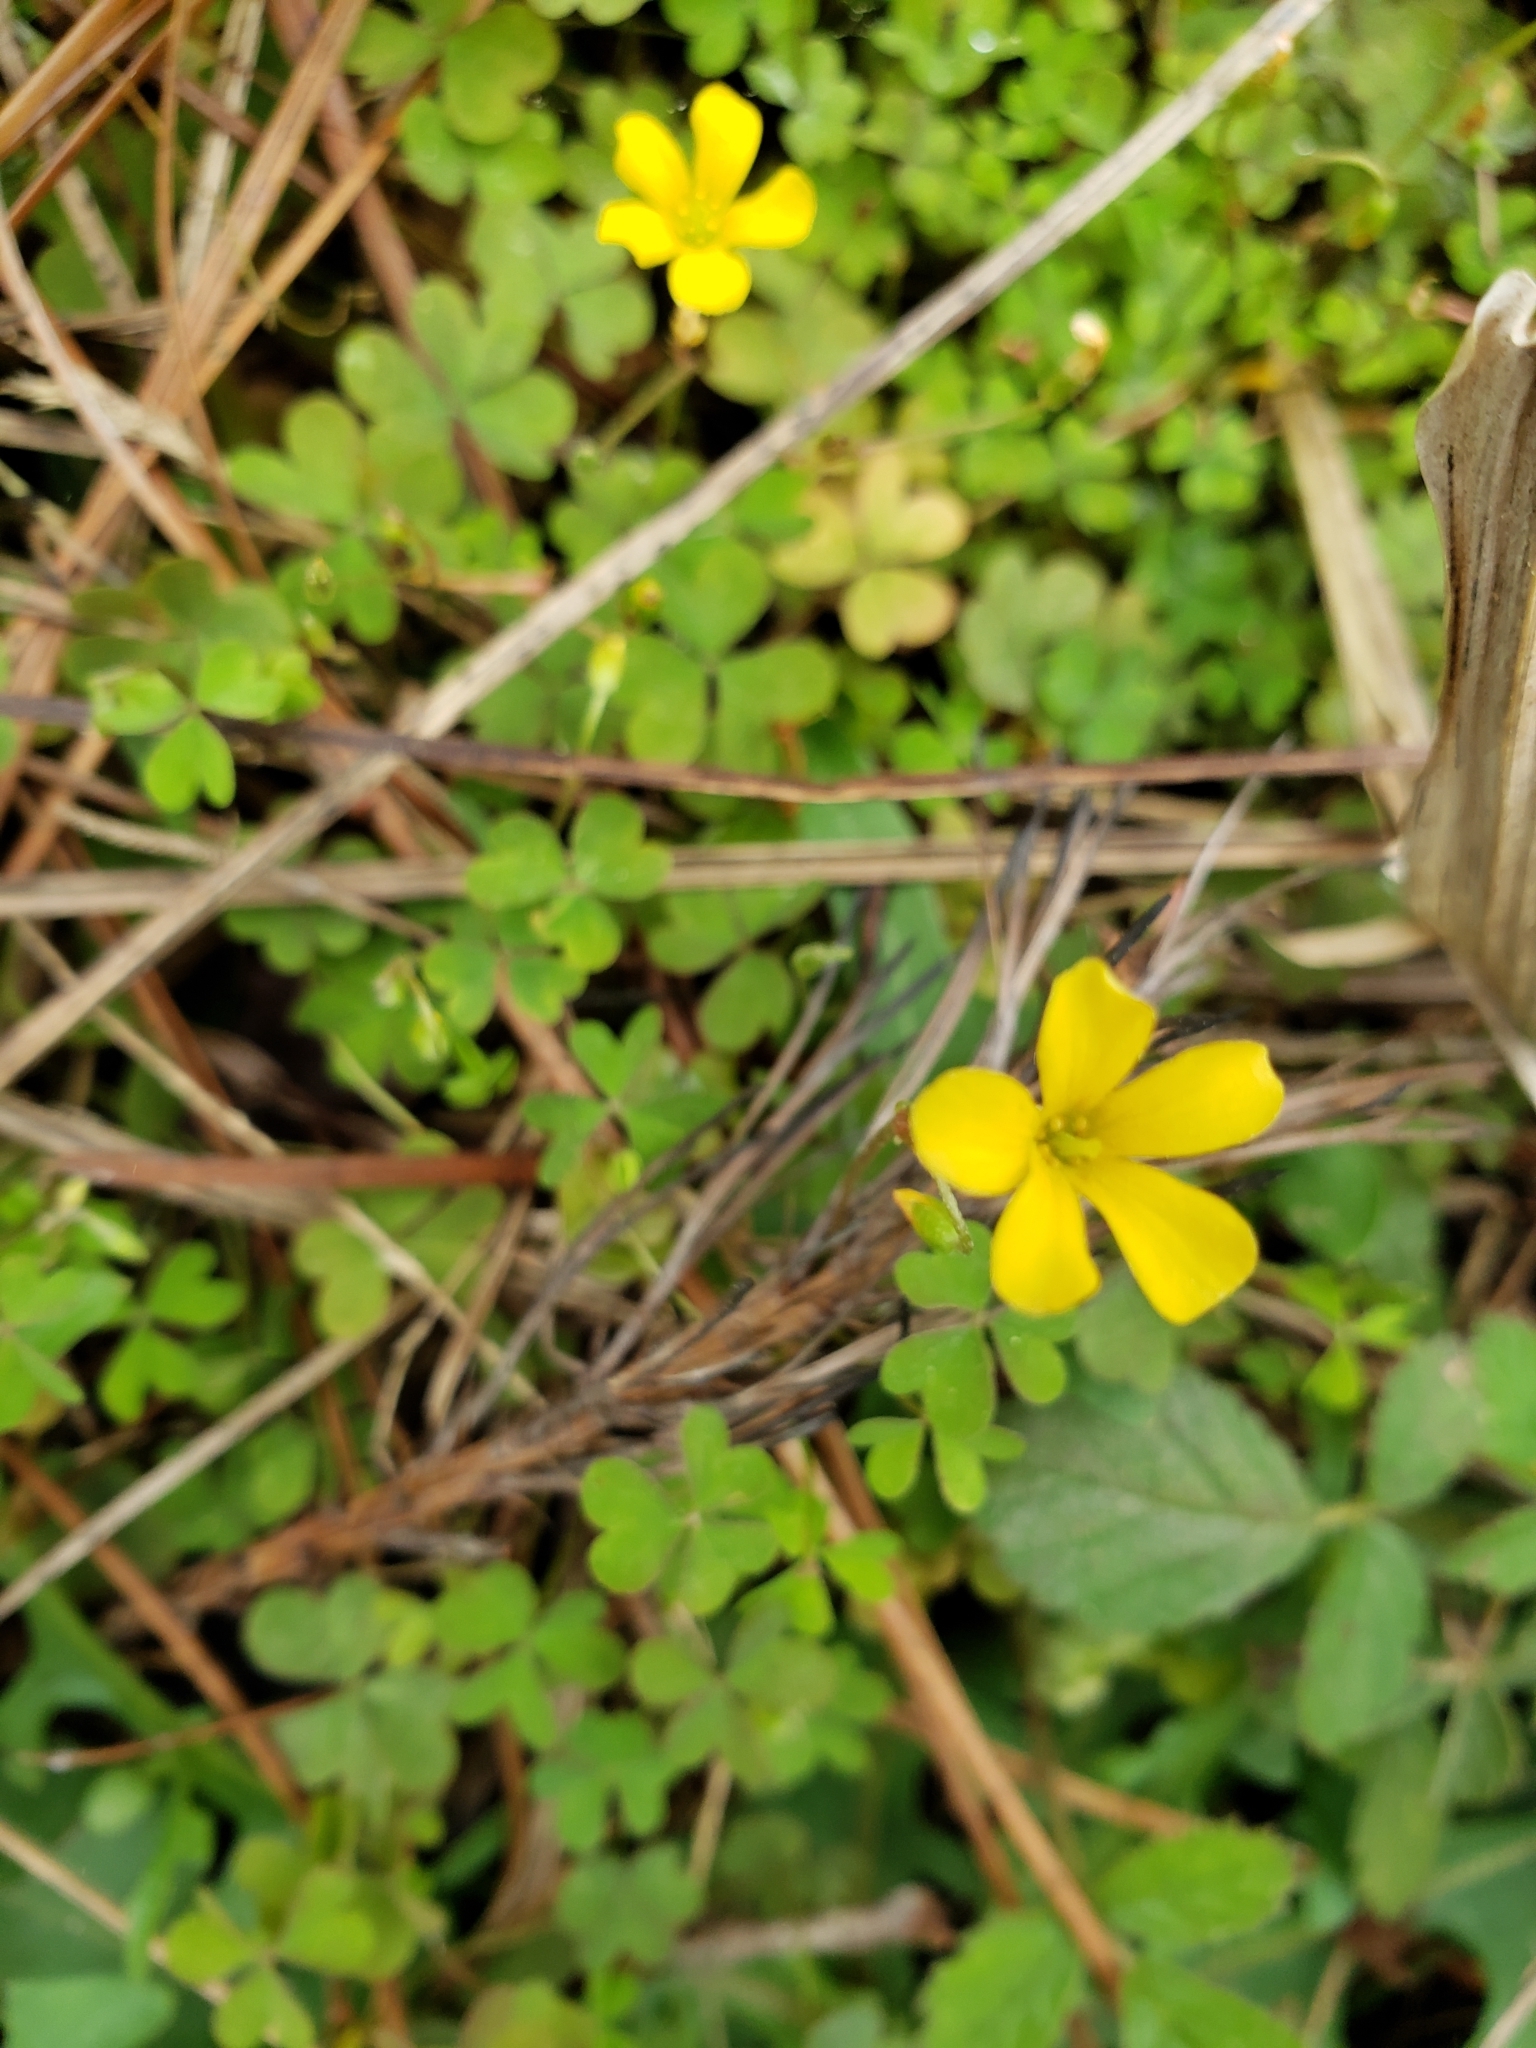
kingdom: Plantae
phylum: Tracheophyta
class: Magnoliopsida
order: Oxalidales
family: Oxalidaceae
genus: Oxalis
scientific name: Oxalis corniculata
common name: Procumbent yellow-sorrel
